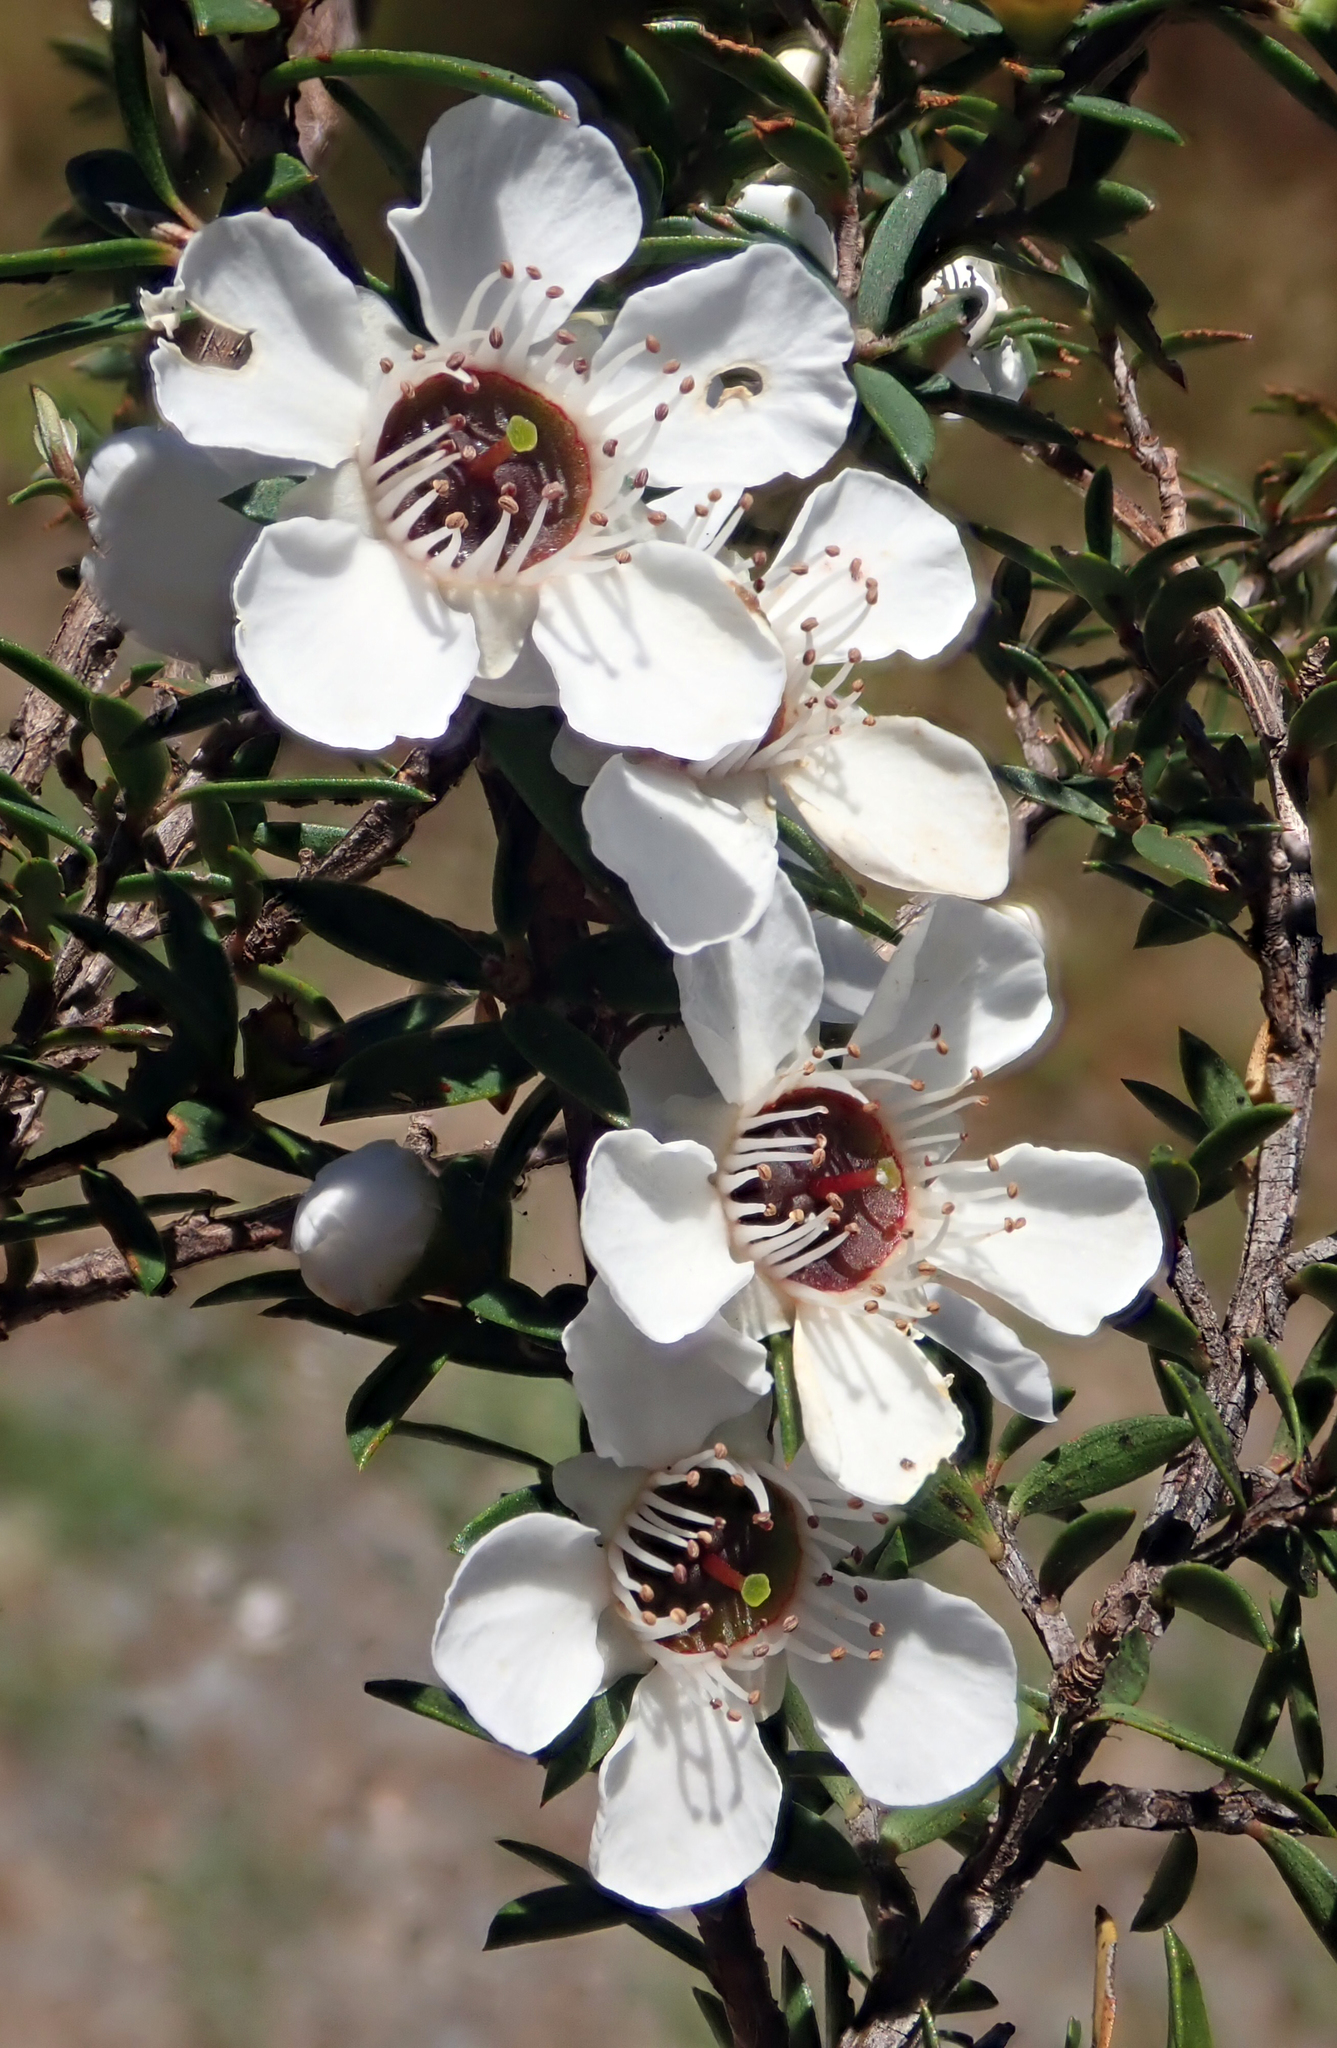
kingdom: Plantae
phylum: Tracheophyta
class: Magnoliopsida
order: Myrtales
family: Myrtaceae
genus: Leptospermum
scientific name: Leptospermum scoparium
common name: Broom tea-tree
